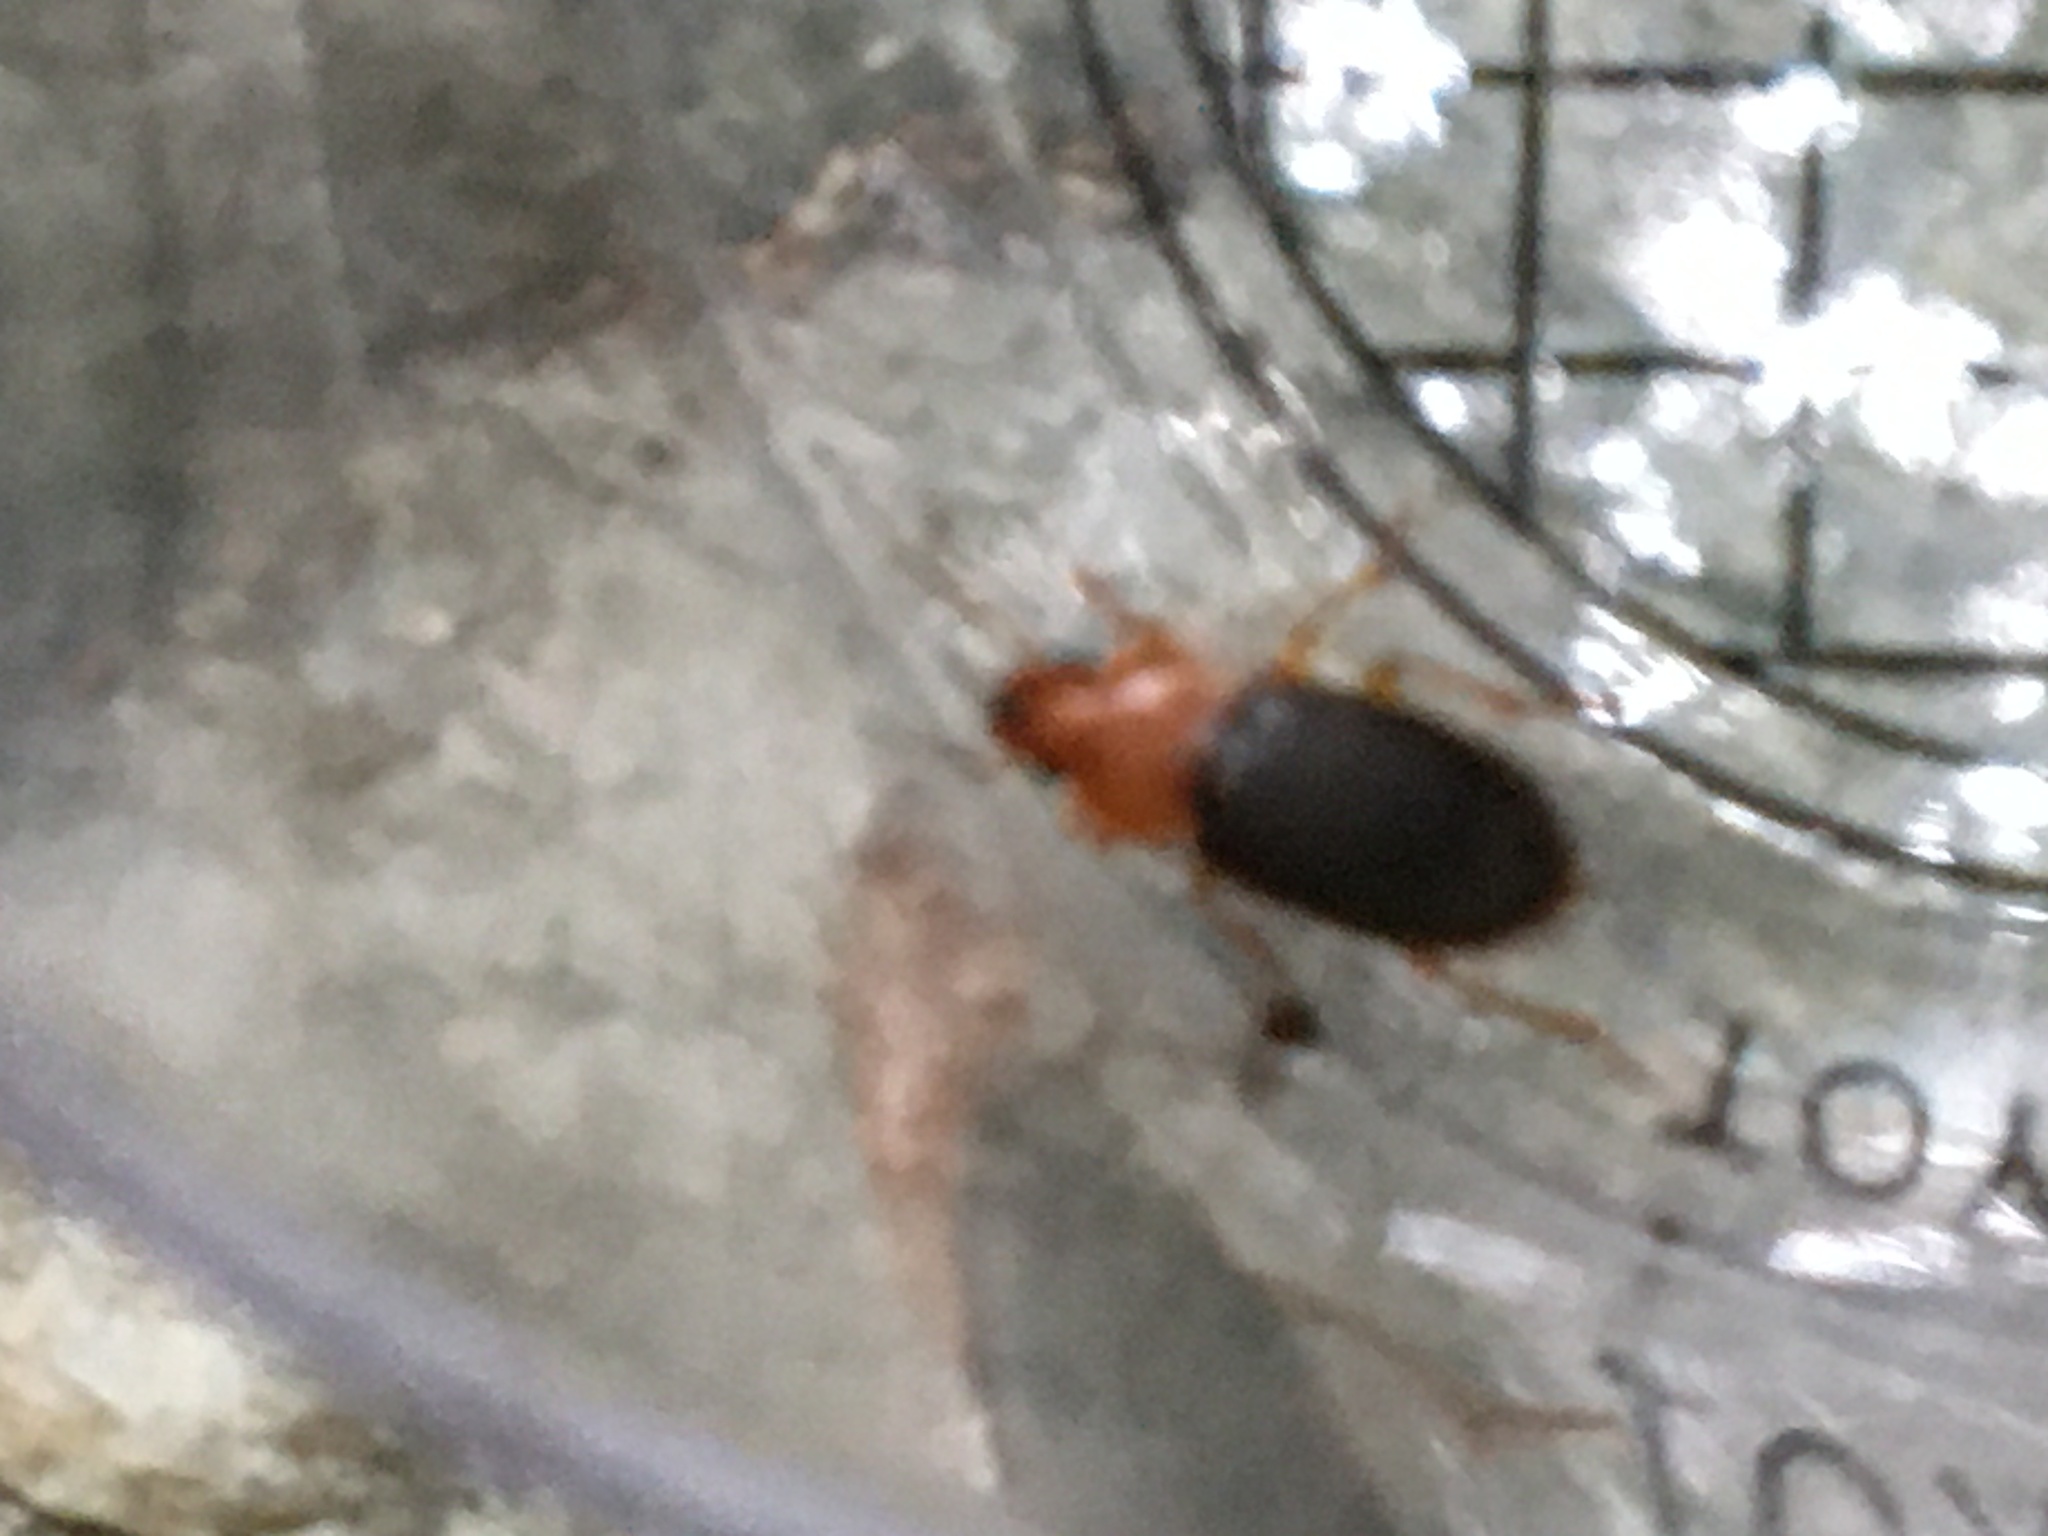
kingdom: Animalia
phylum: Arthropoda
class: Insecta
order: Coleoptera
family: Carabidae
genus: Amphasia
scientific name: Amphasia interstitialis
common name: Red-headed ground beetle
